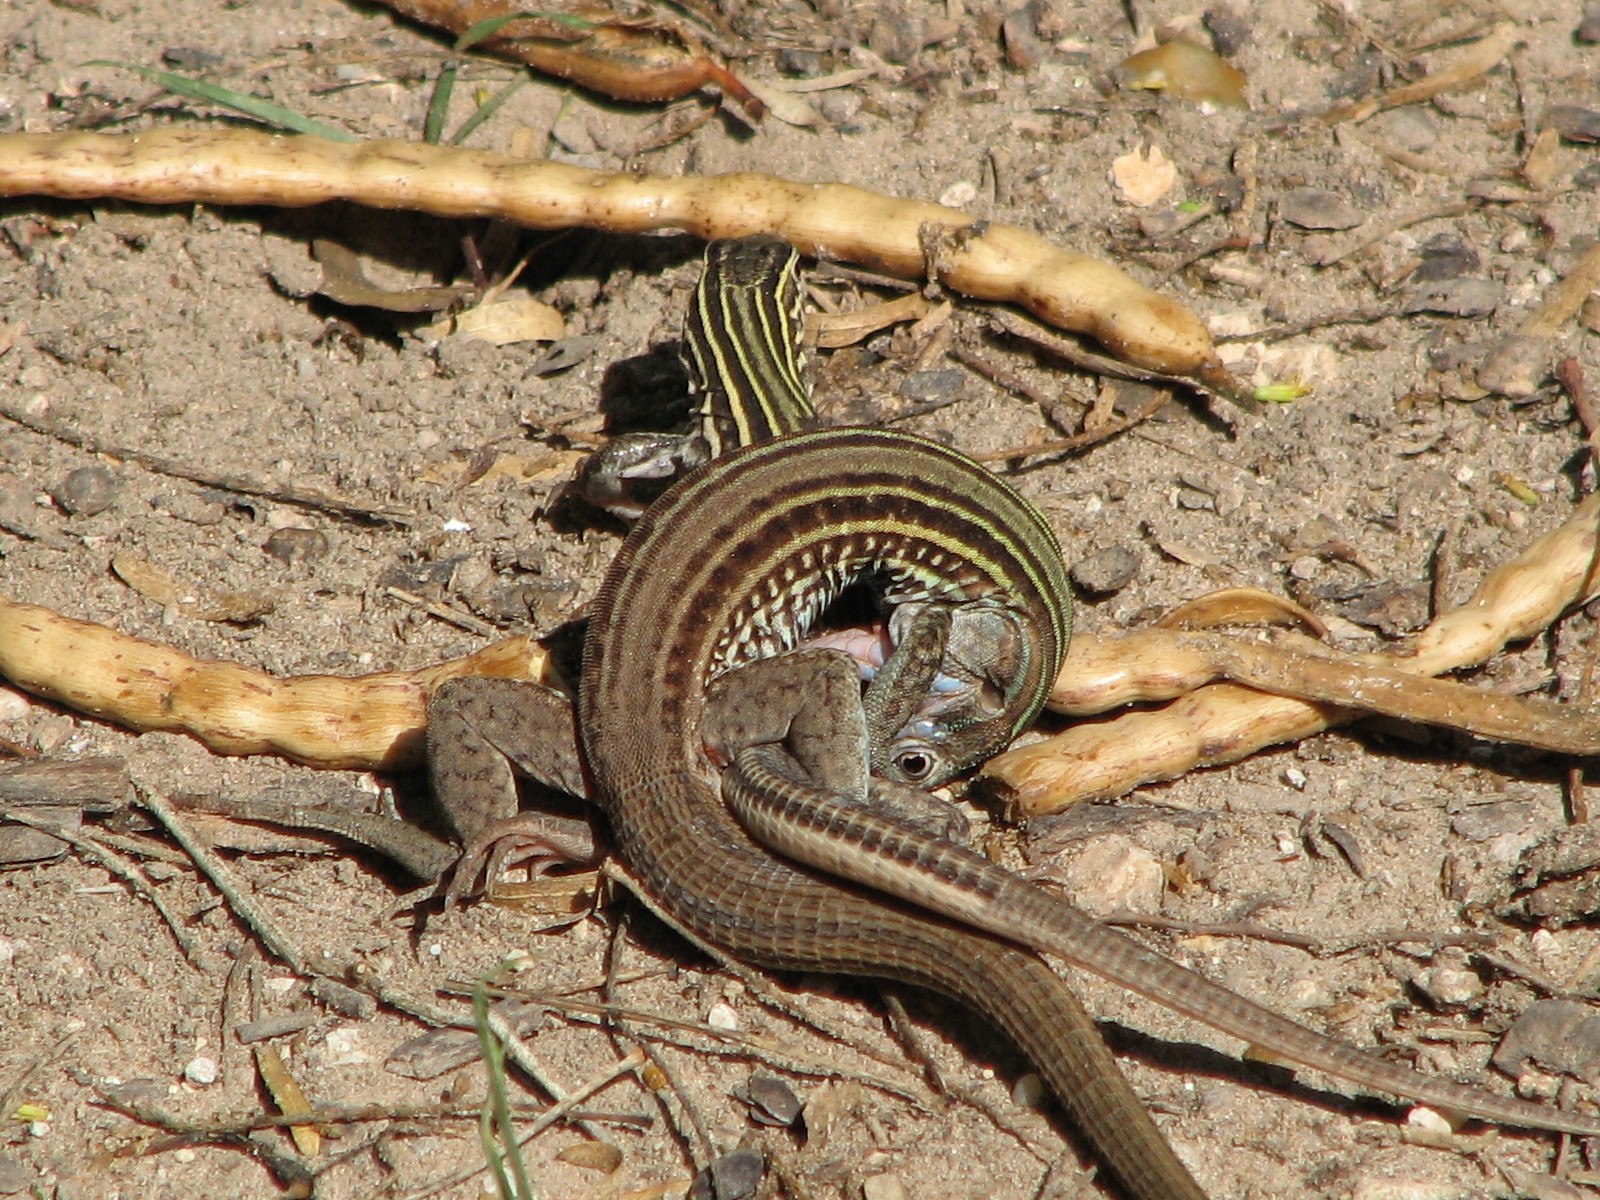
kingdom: Animalia
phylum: Chordata
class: Squamata
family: Teiidae
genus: Aspidoscelis
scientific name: Aspidoscelis gularis
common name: Eastern spotted whiptail
